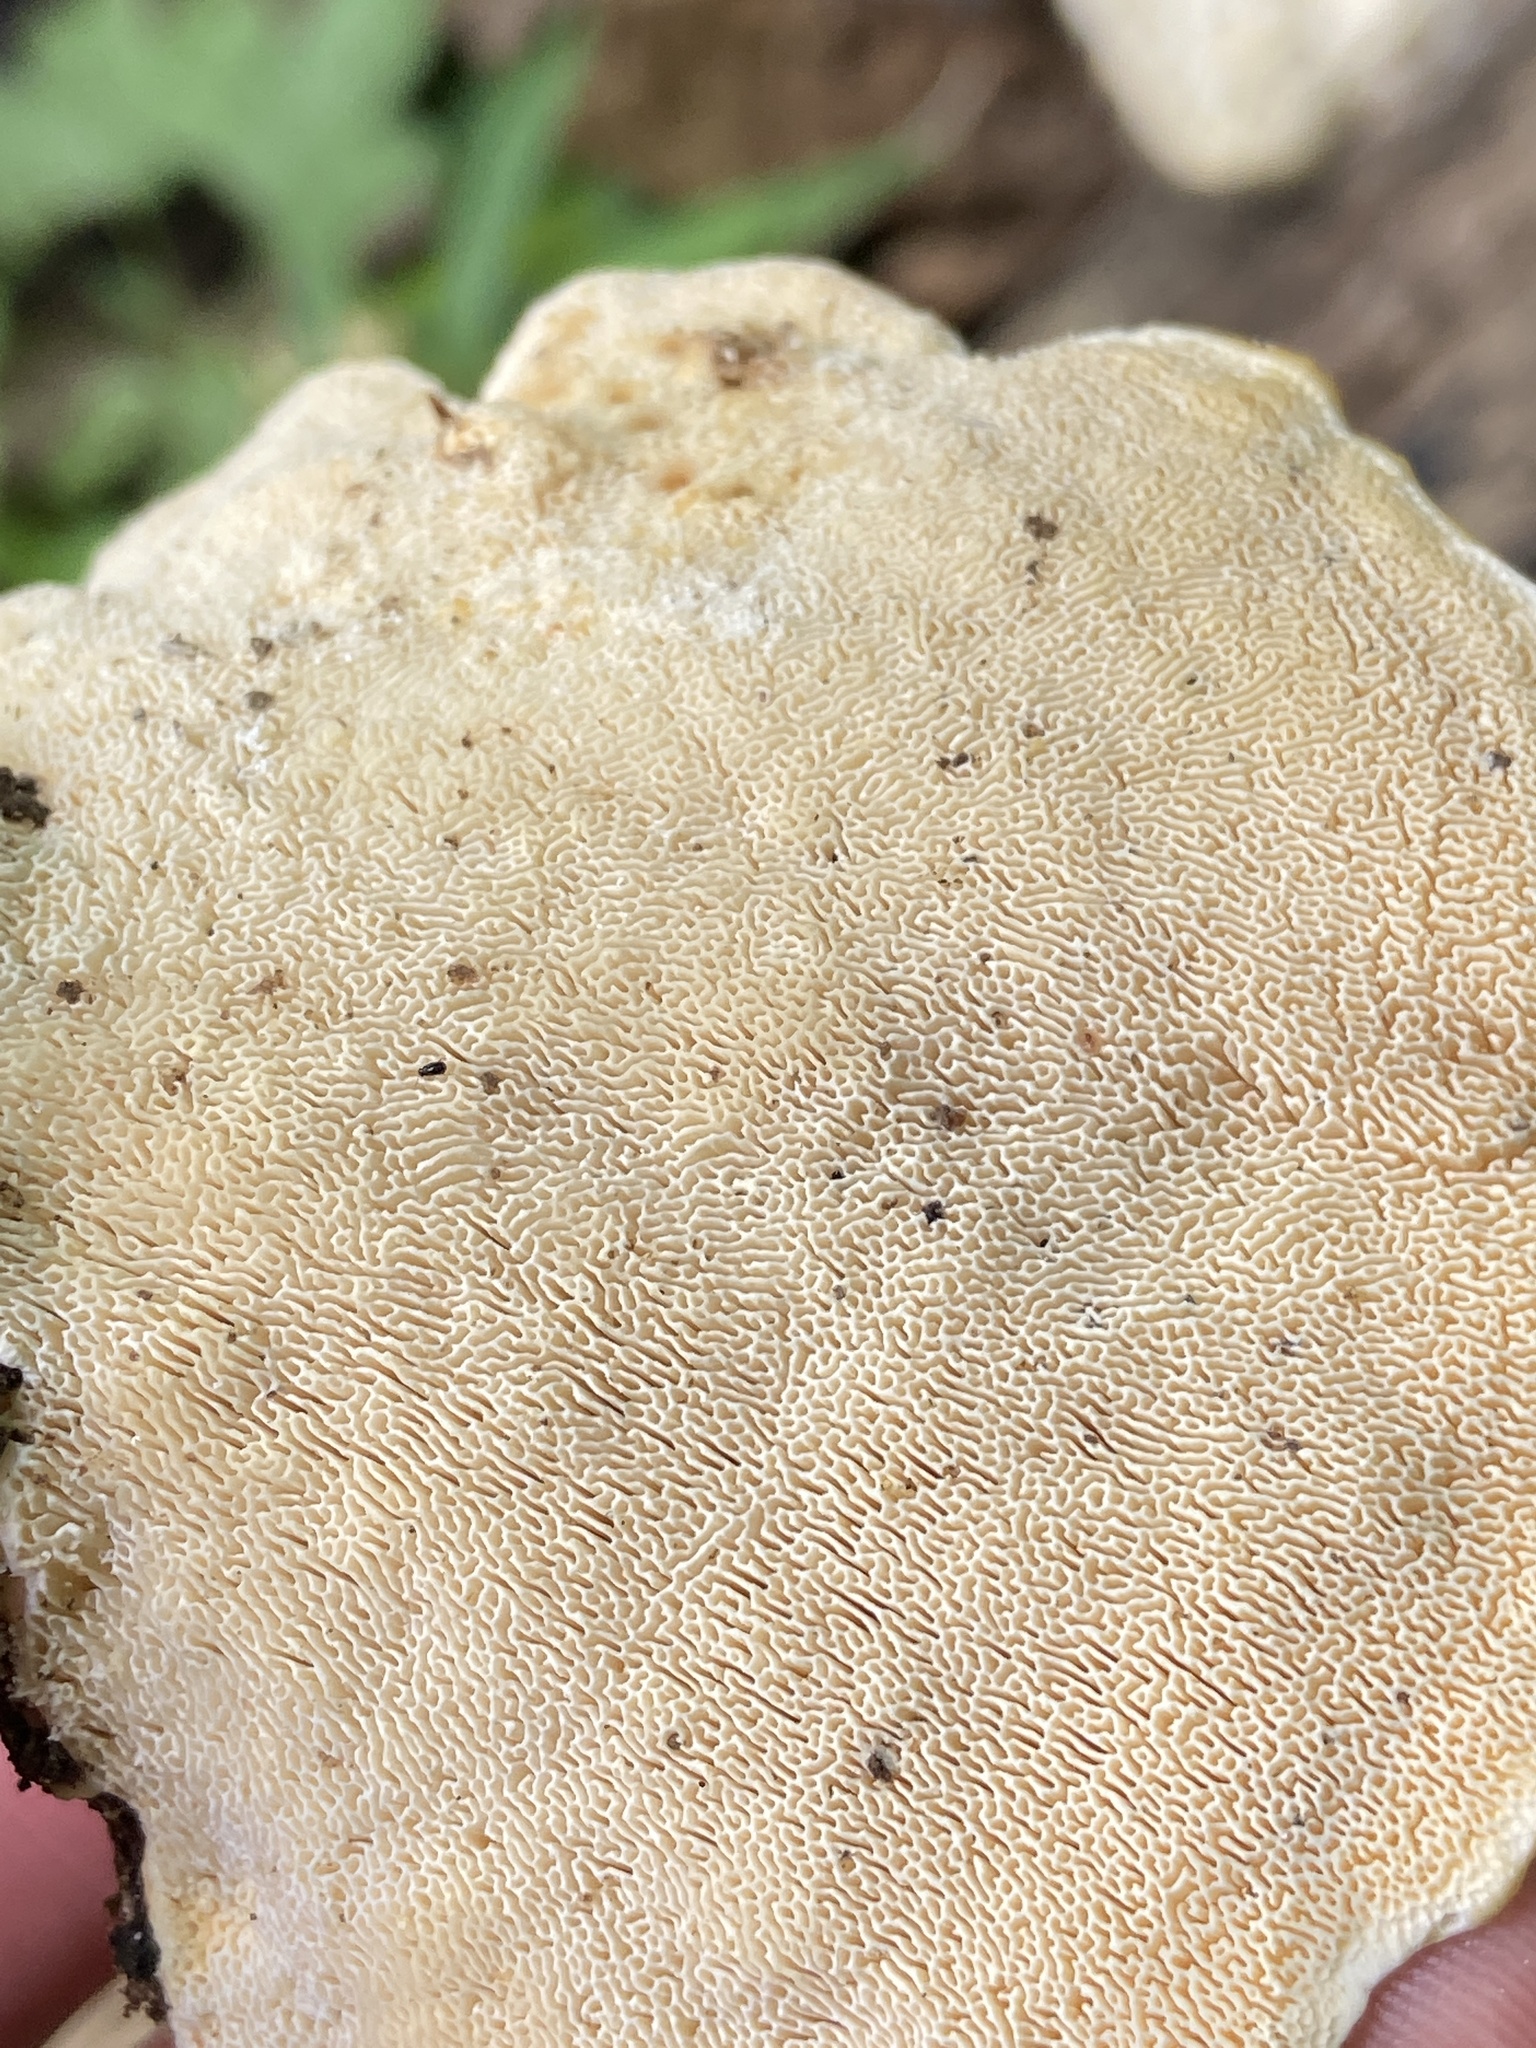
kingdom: Fungi
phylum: Basidiomycota
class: Agaricomycetes
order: Polyporales
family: Polyporaceae
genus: Trametes
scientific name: Trametes
